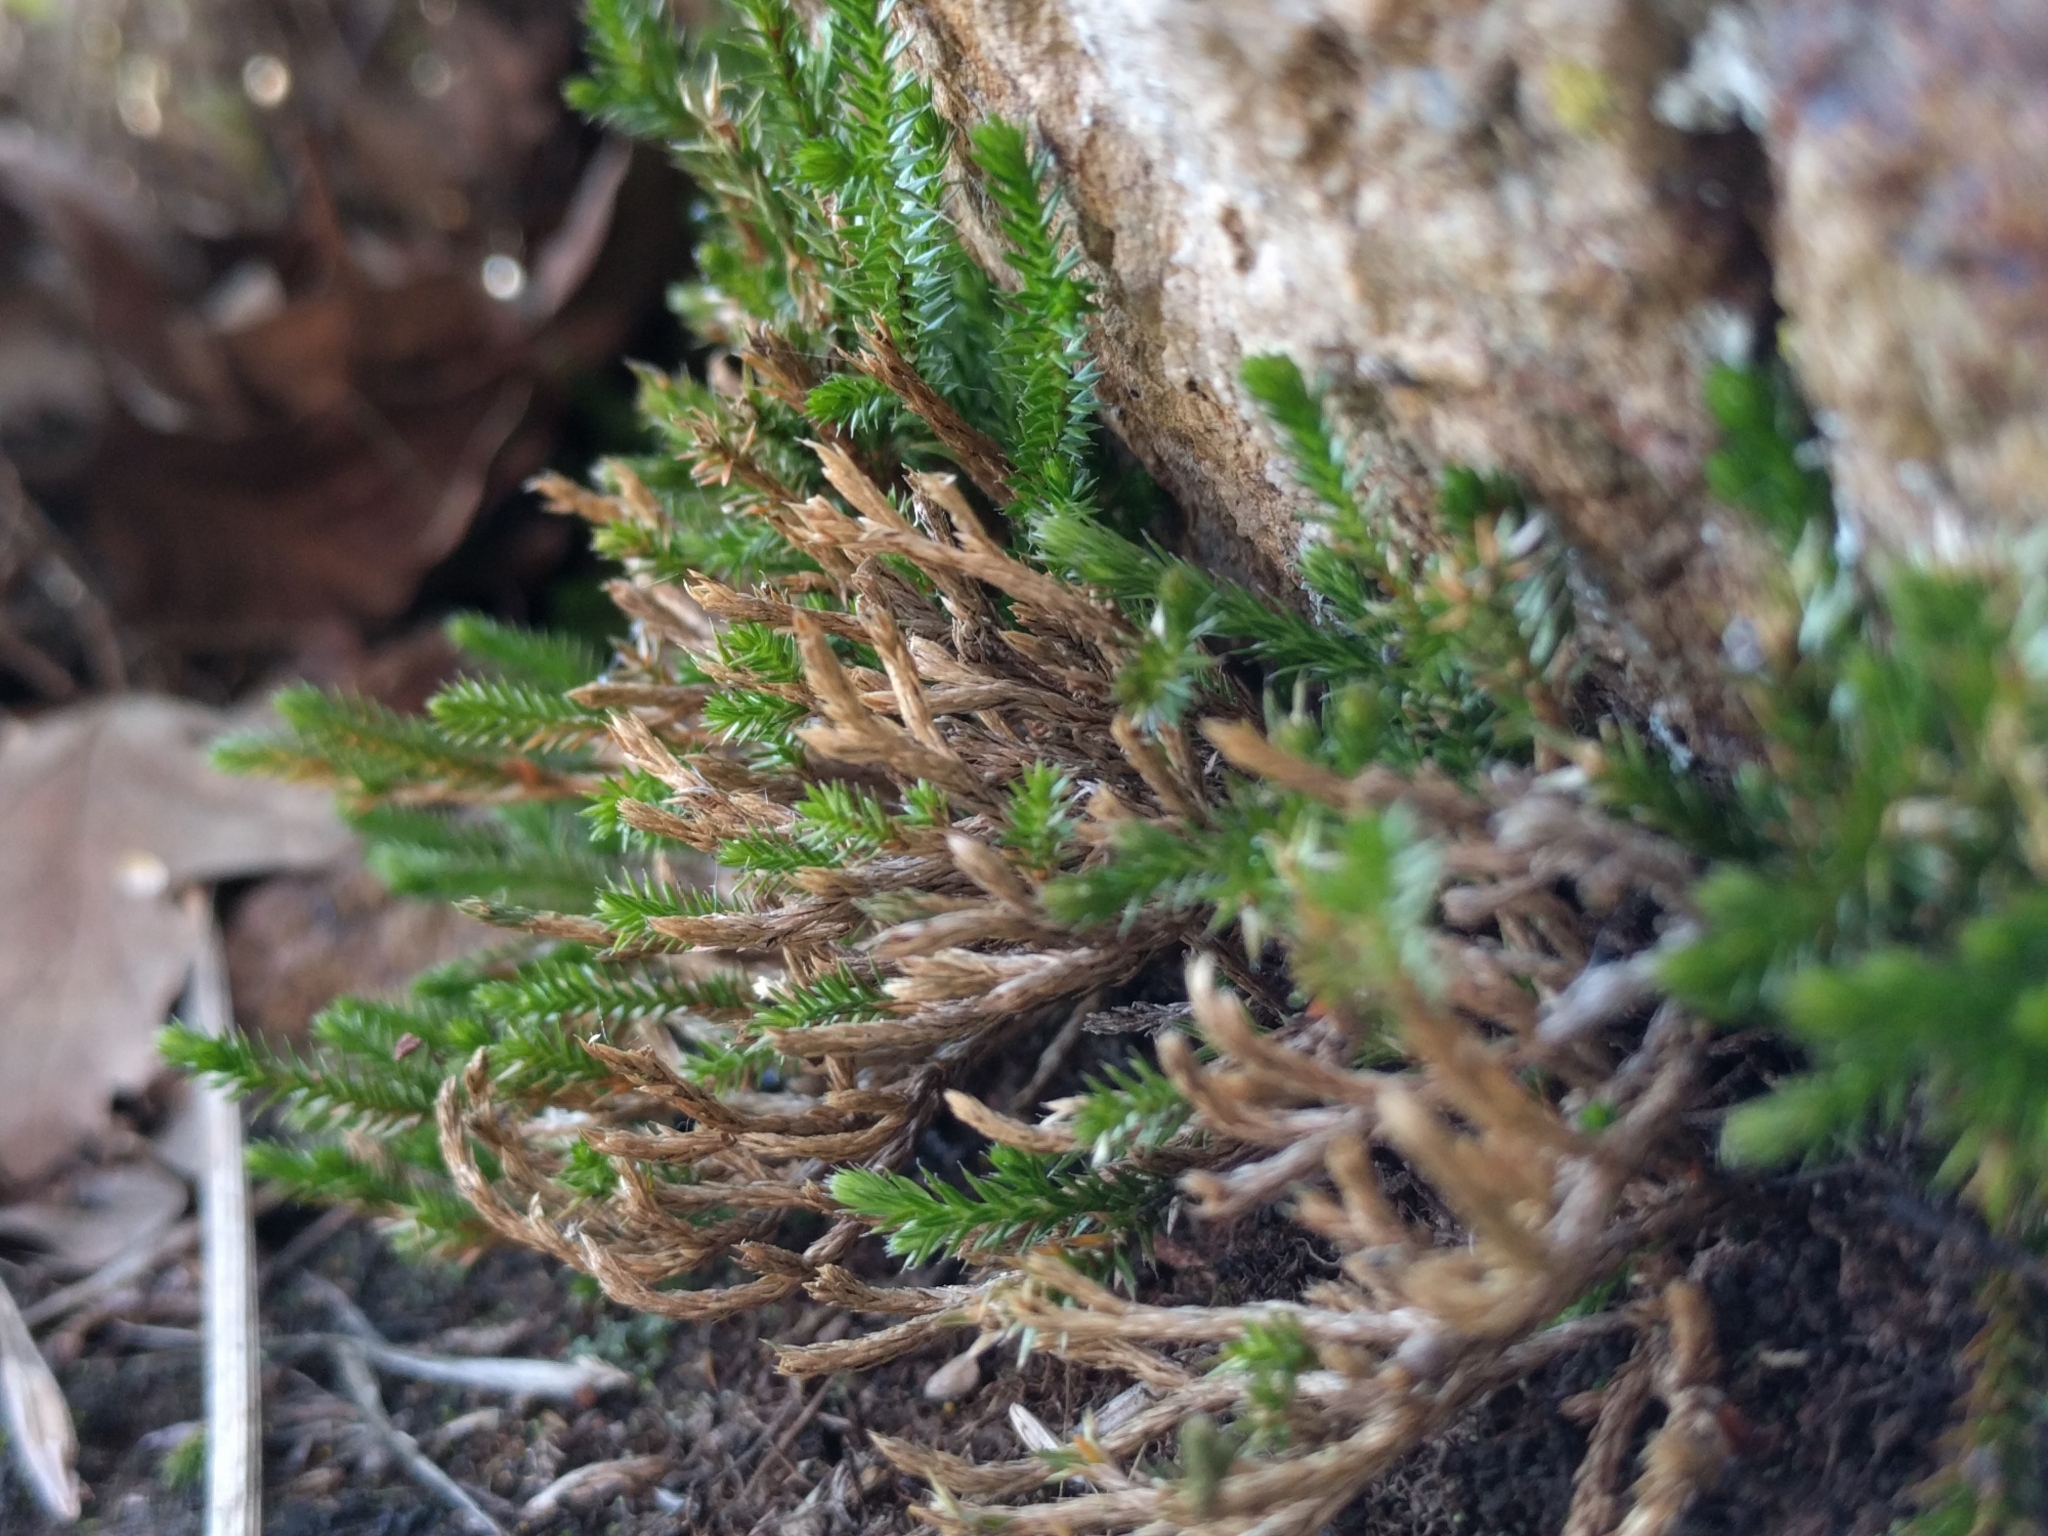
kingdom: Plantae
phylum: Tracheophyta
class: Lycopodiopsida
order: Selaginellales
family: Selaginellaceae
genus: Selaginella
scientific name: Selaginella bigelovii
